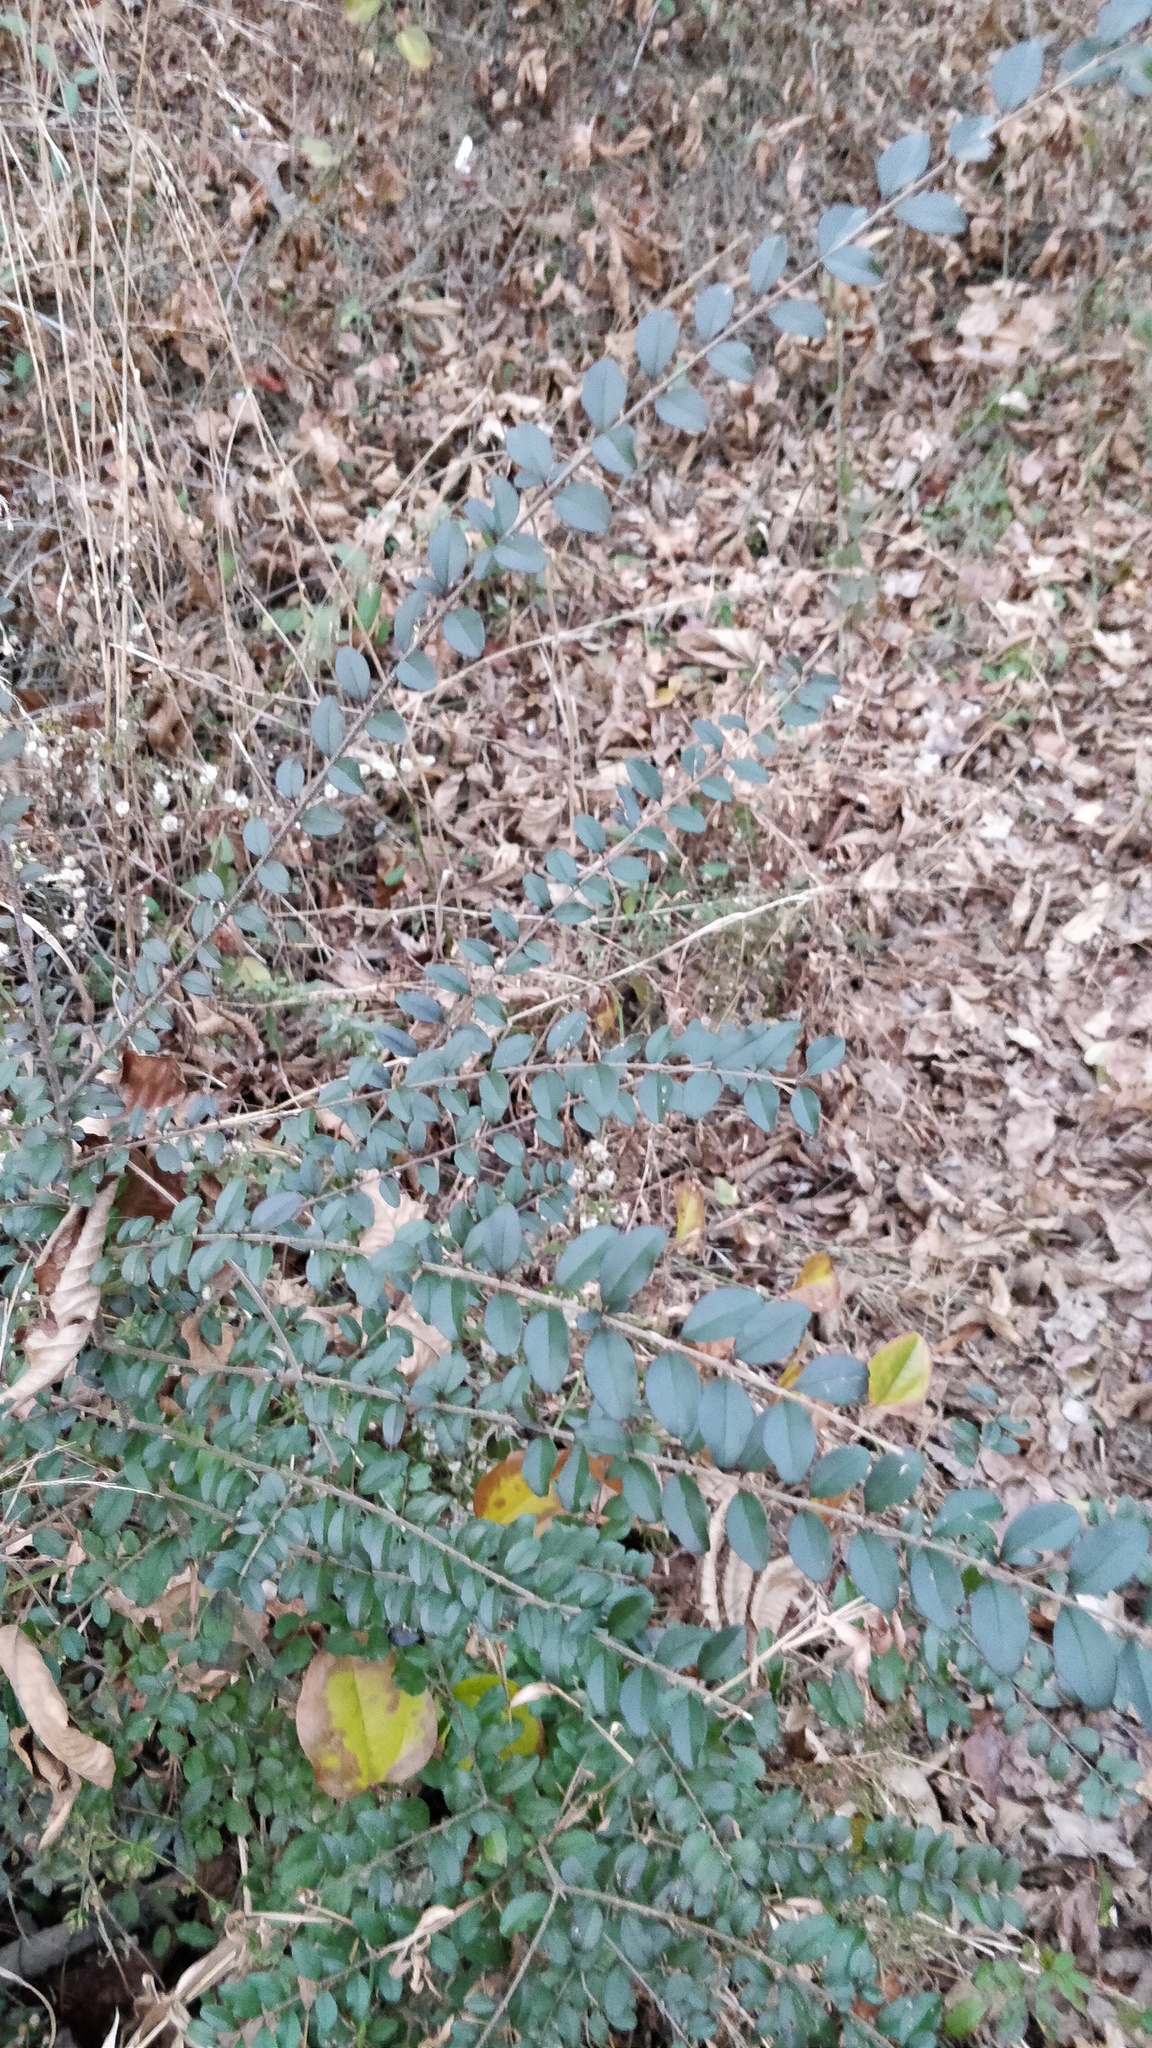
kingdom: Plantae
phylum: Tracheophyta
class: Magnoliopsida
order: Lamiales
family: Oleaceae
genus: Ligustrum
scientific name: Ligustrum sinense
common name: Chinese privet
